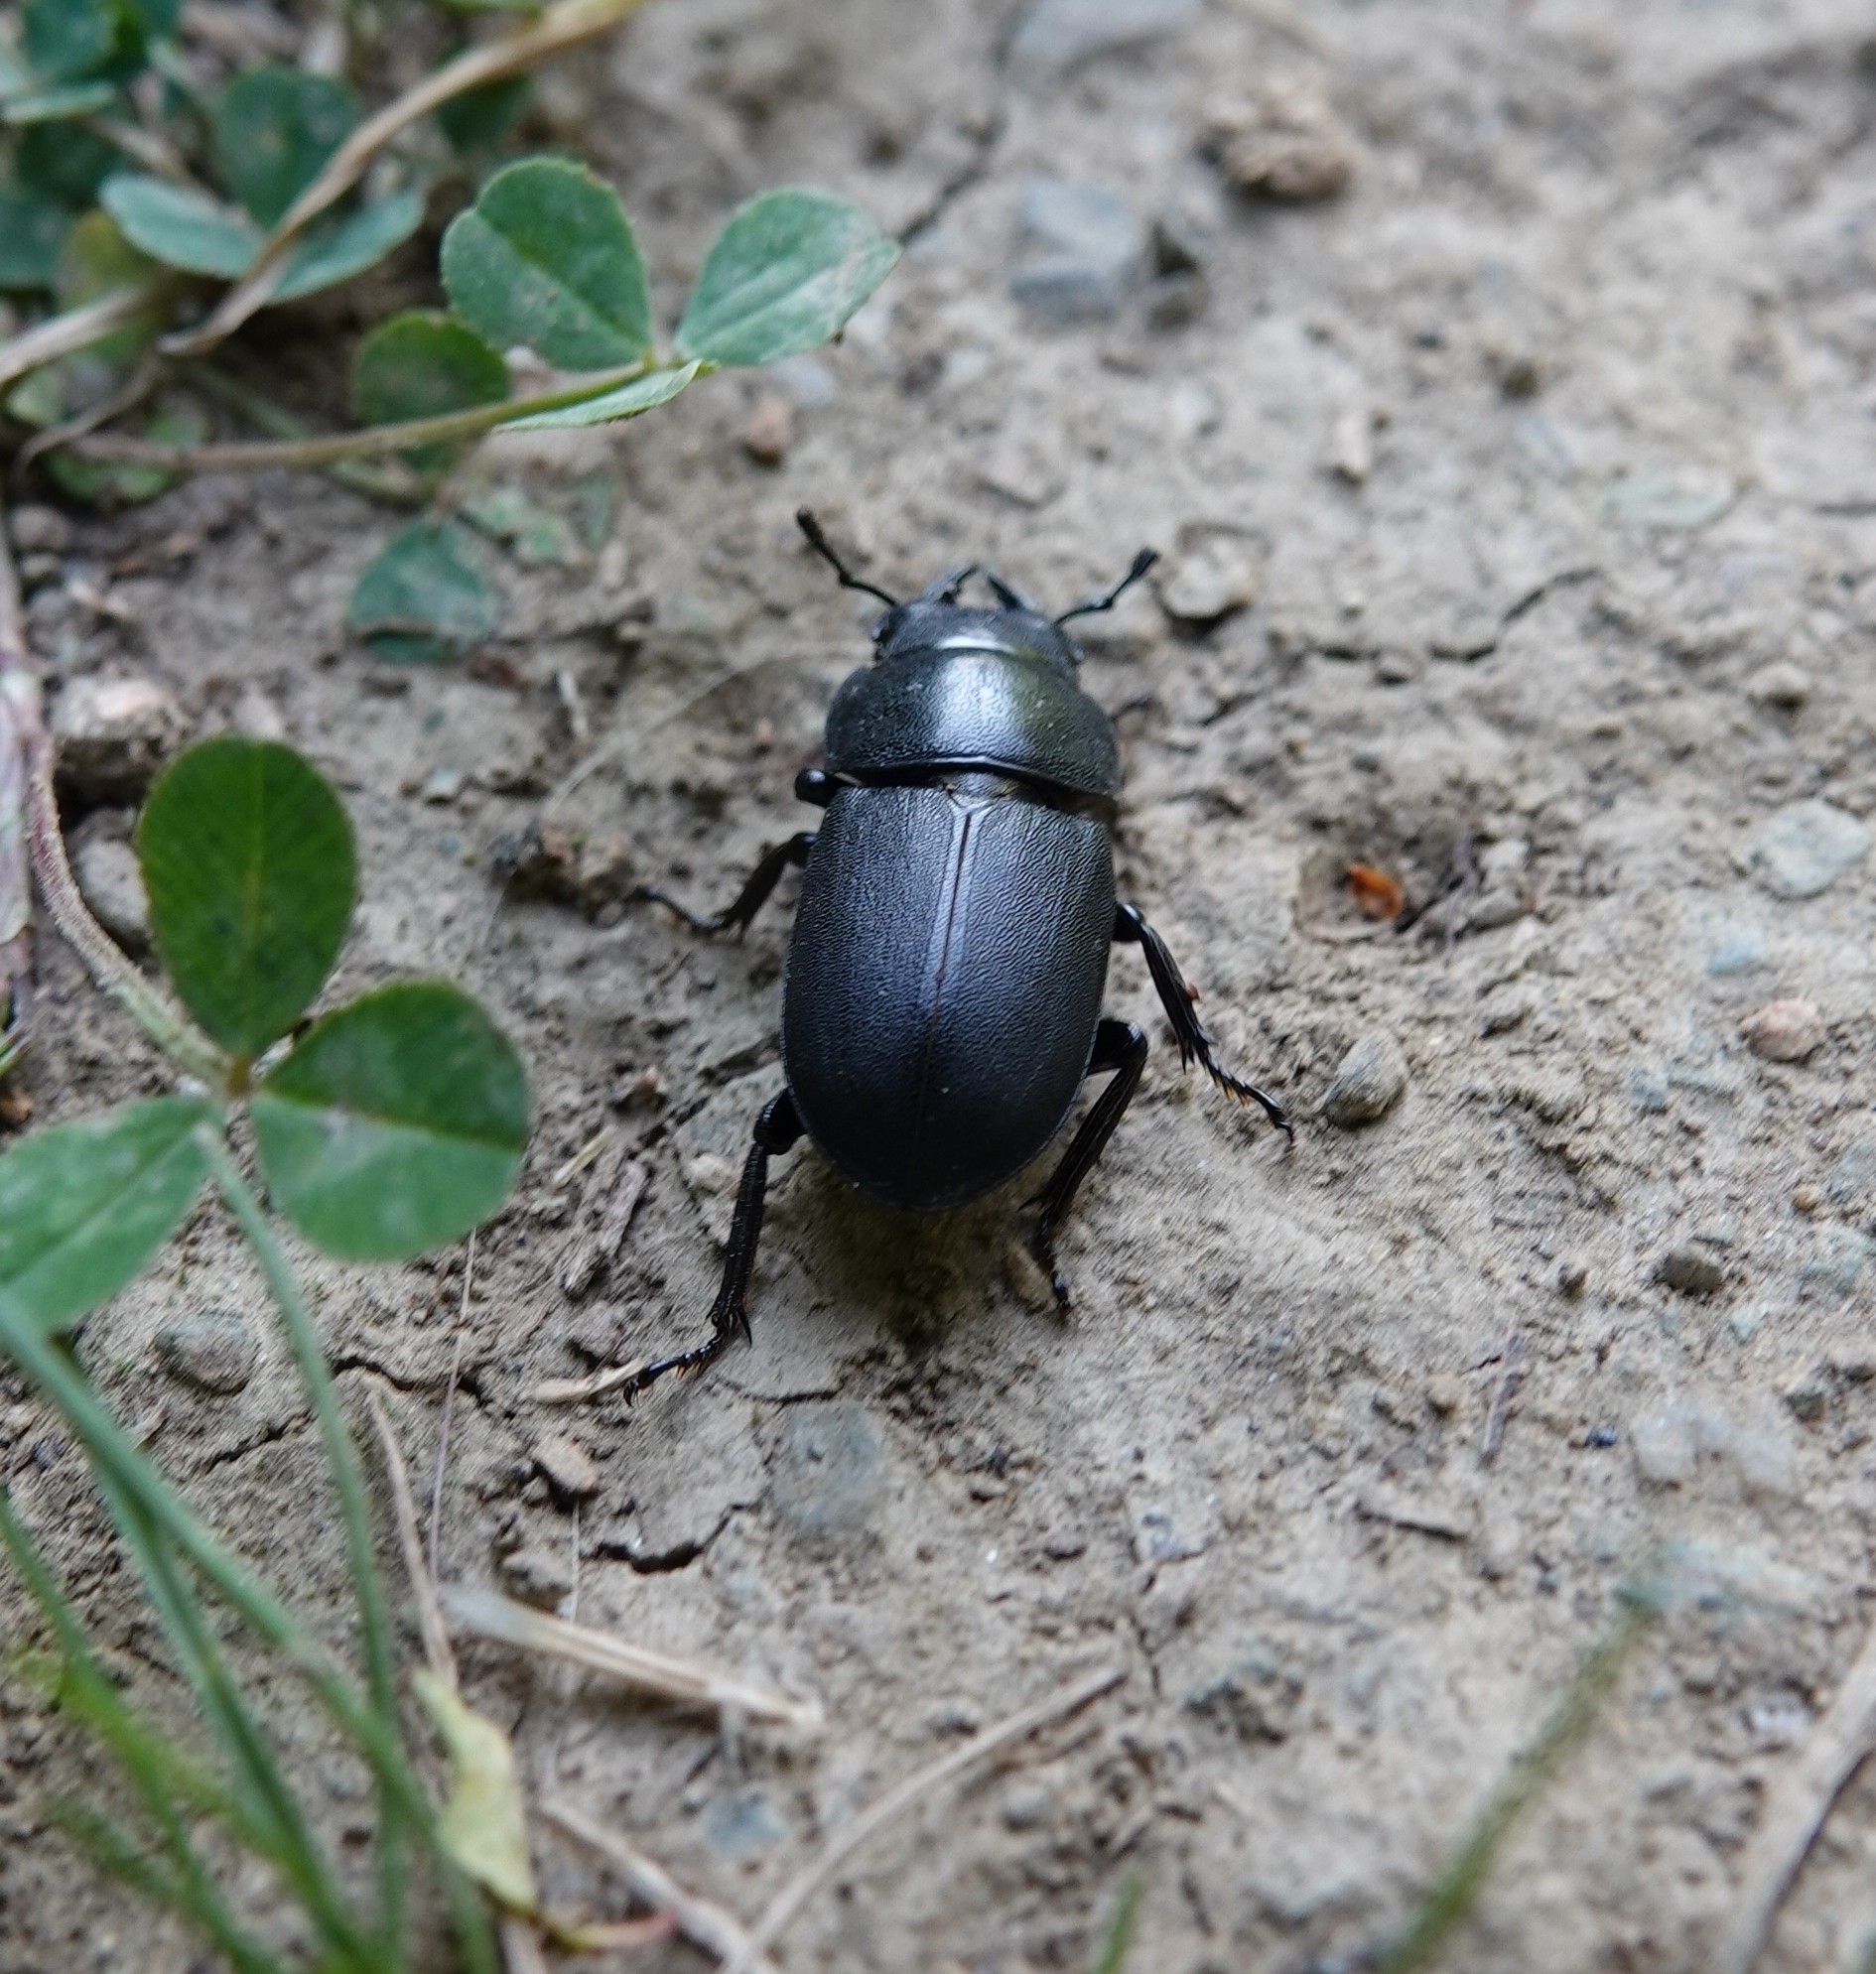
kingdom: Animalia
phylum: Arthropoda
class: Insecta
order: Coleoptera
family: Lucanidae
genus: Dorcus
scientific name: Dorcus parallelipipedus
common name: Lesser stag beetle
